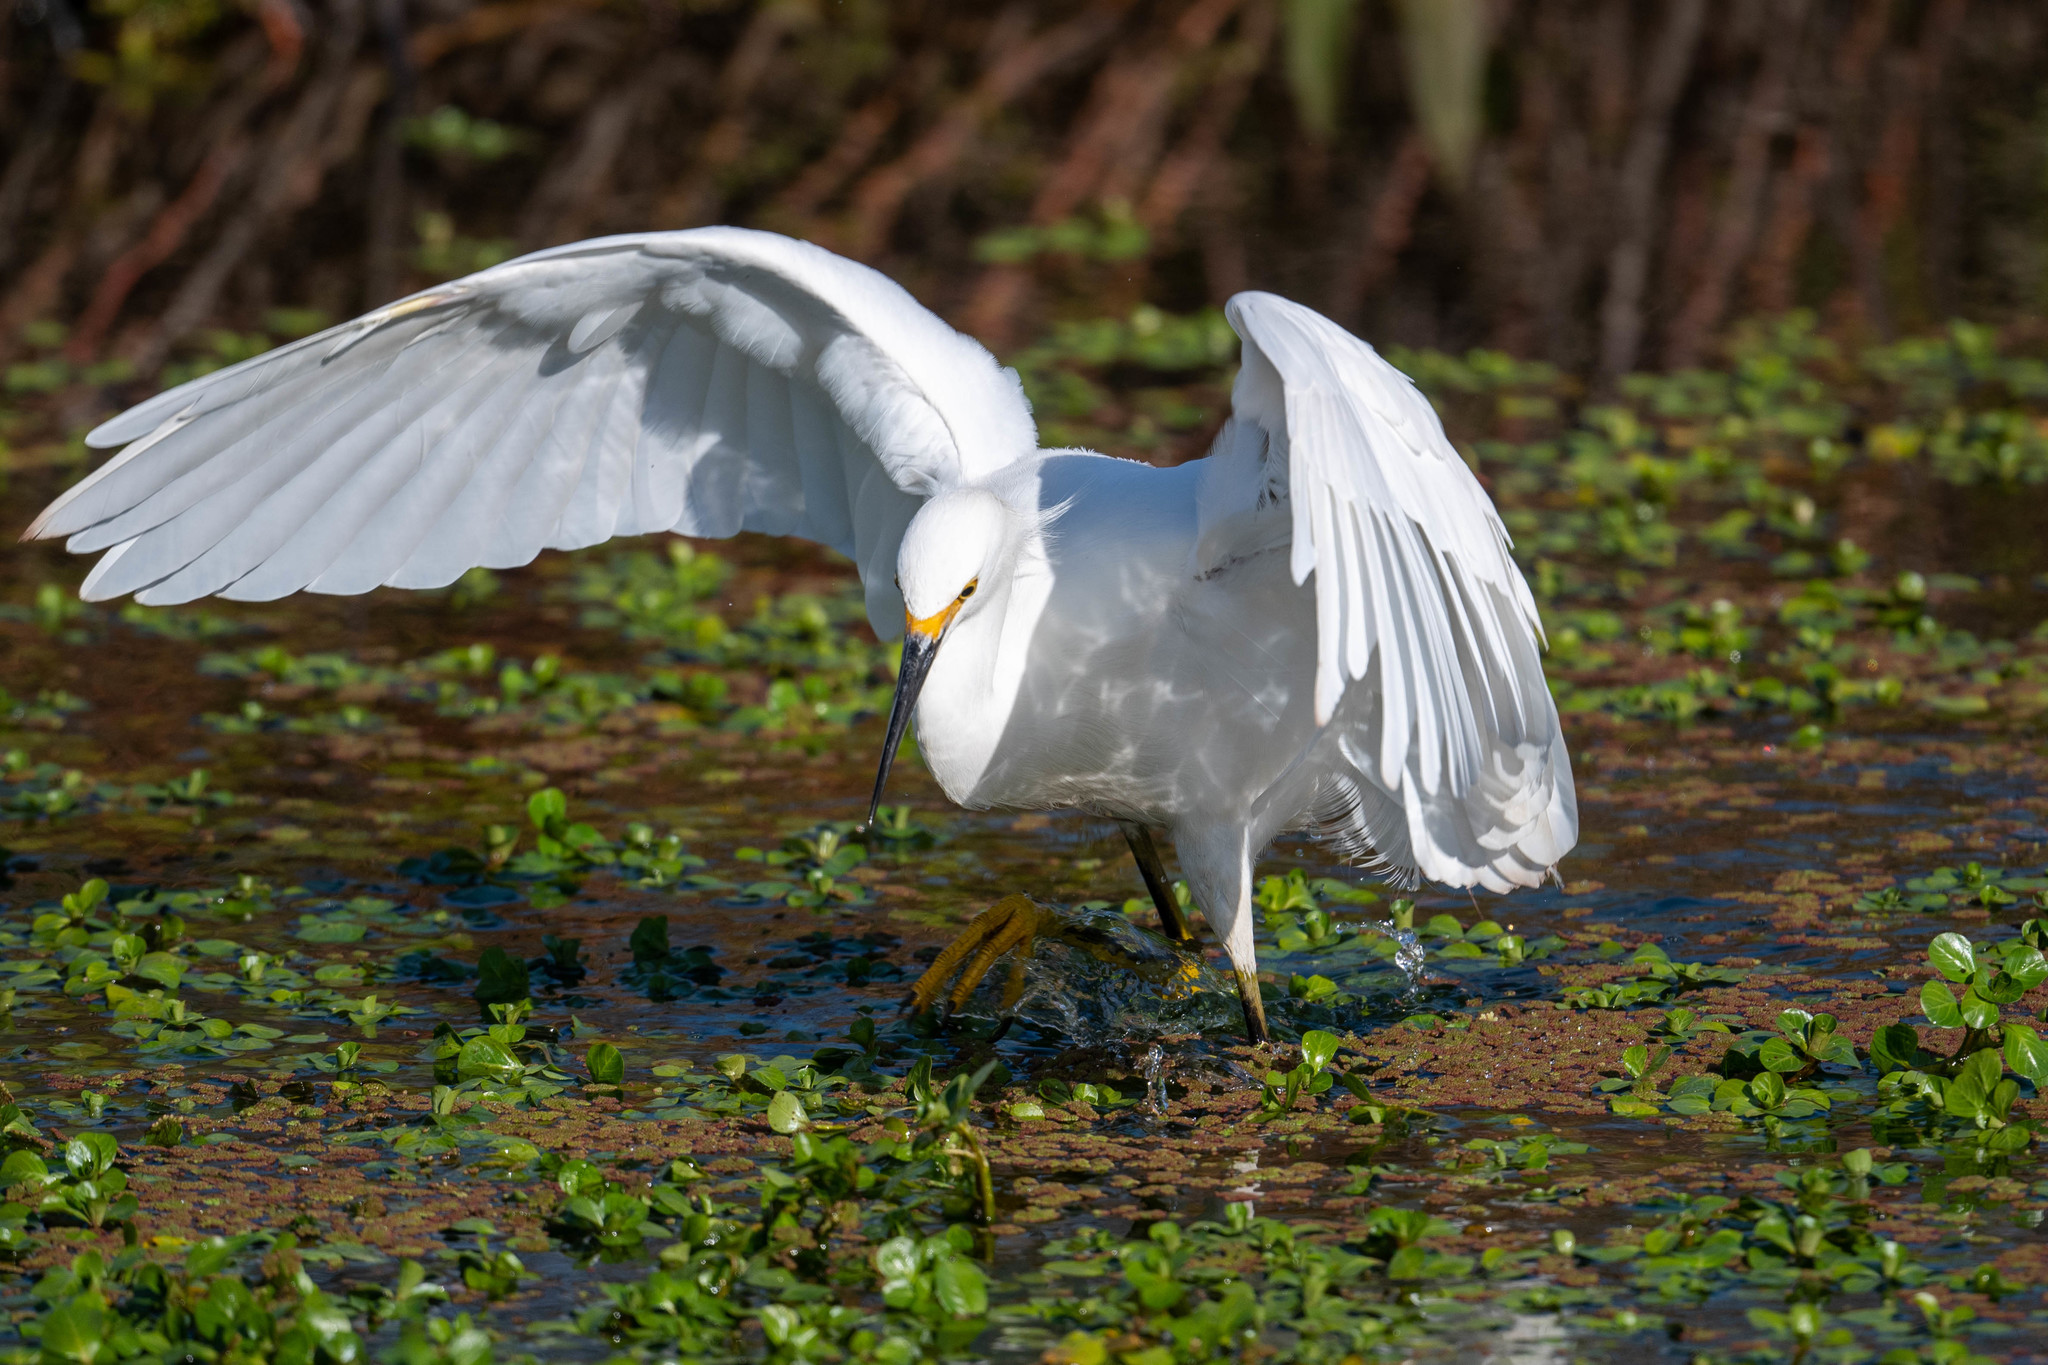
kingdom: Animalia
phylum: Chordata
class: Aves
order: Pelecaniformes
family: Ardeidae
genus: Egretta
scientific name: Egretta thula
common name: Snowy egret
